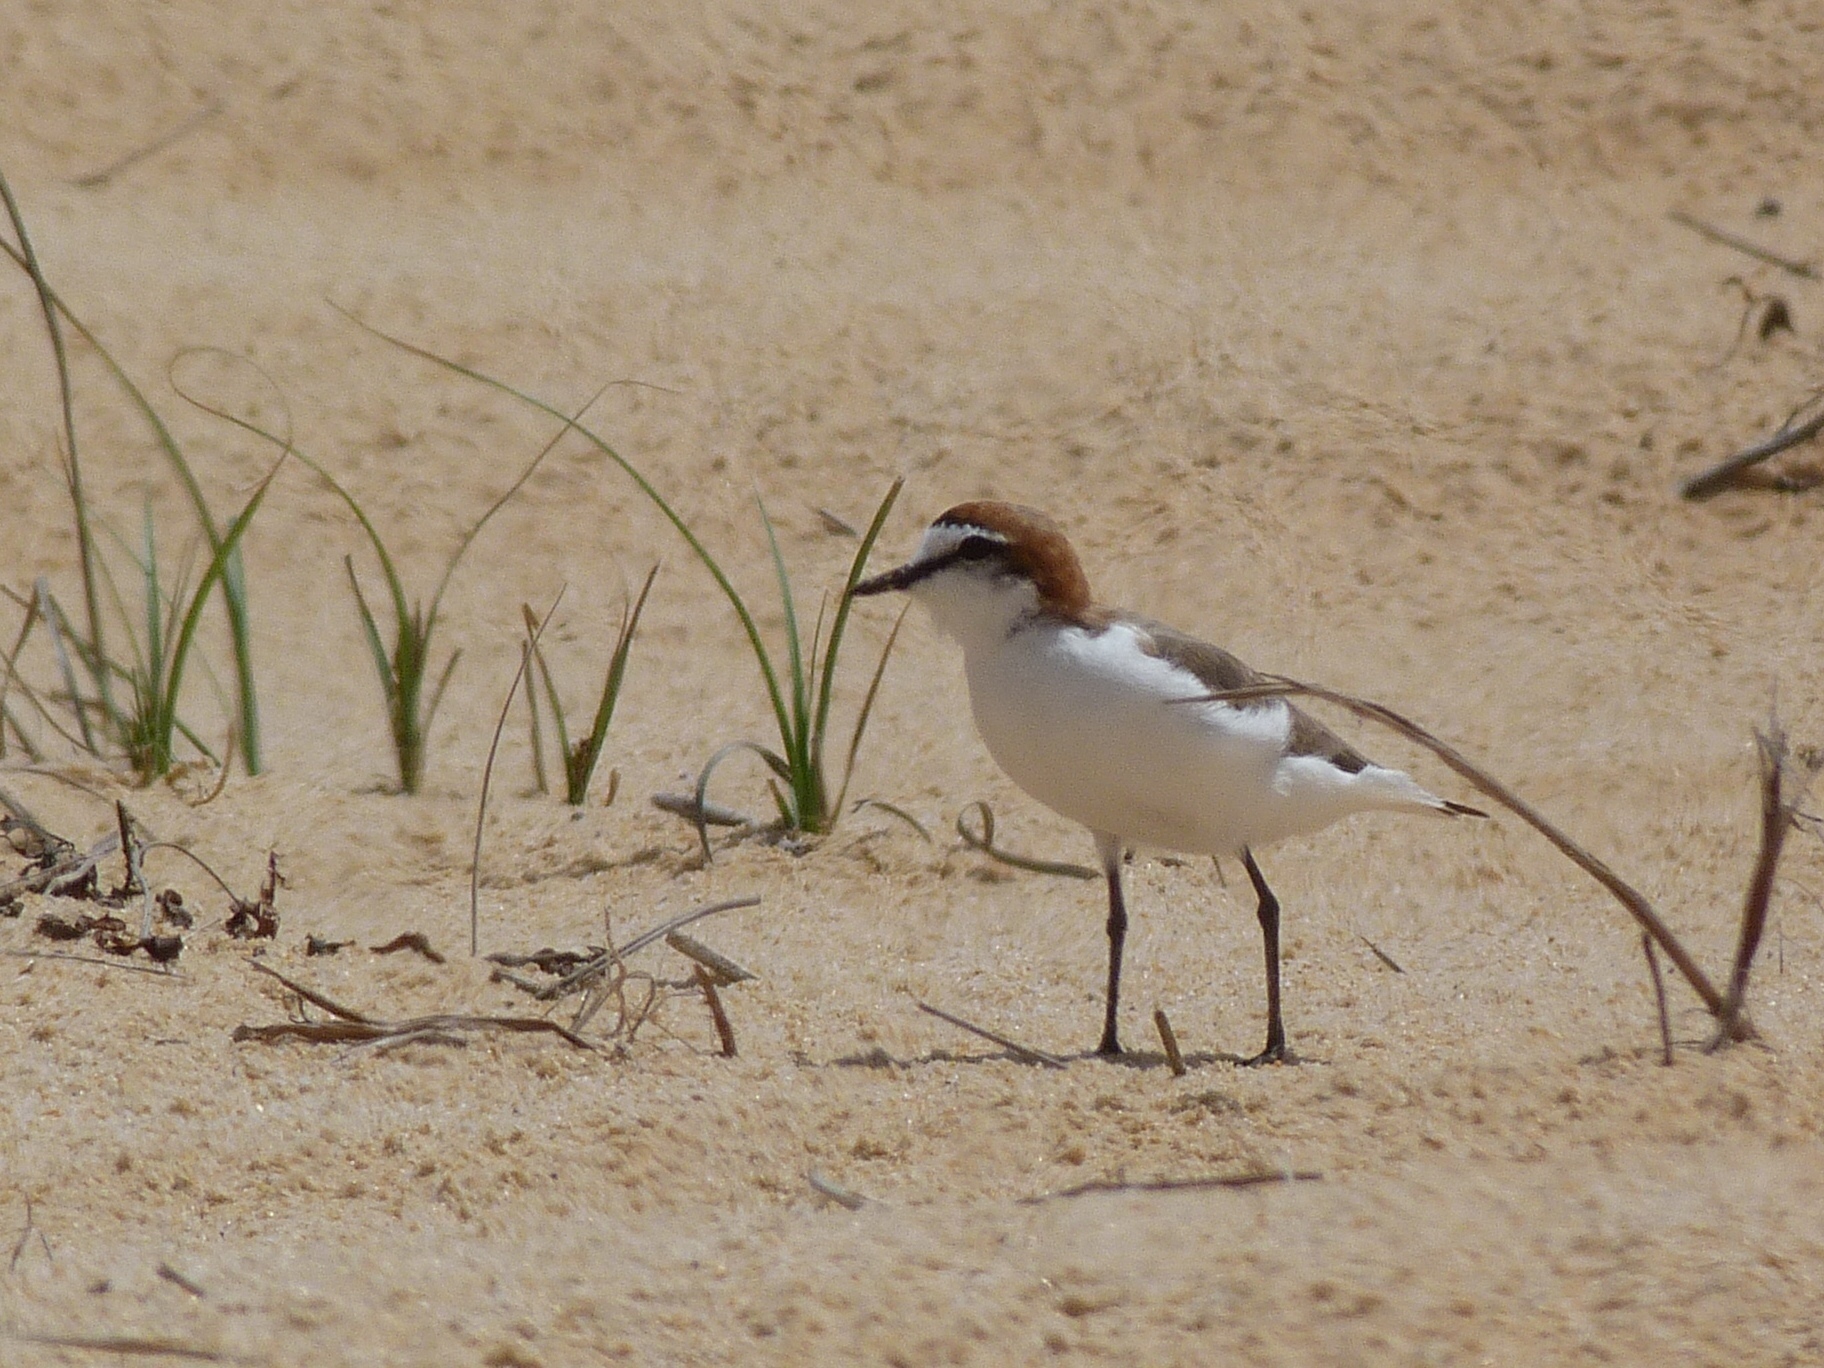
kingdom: Animalia
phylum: Chordata
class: Aves
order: Charadriiformes
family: Charadriidae
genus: Anarhynchus
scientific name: Anarhynchus
